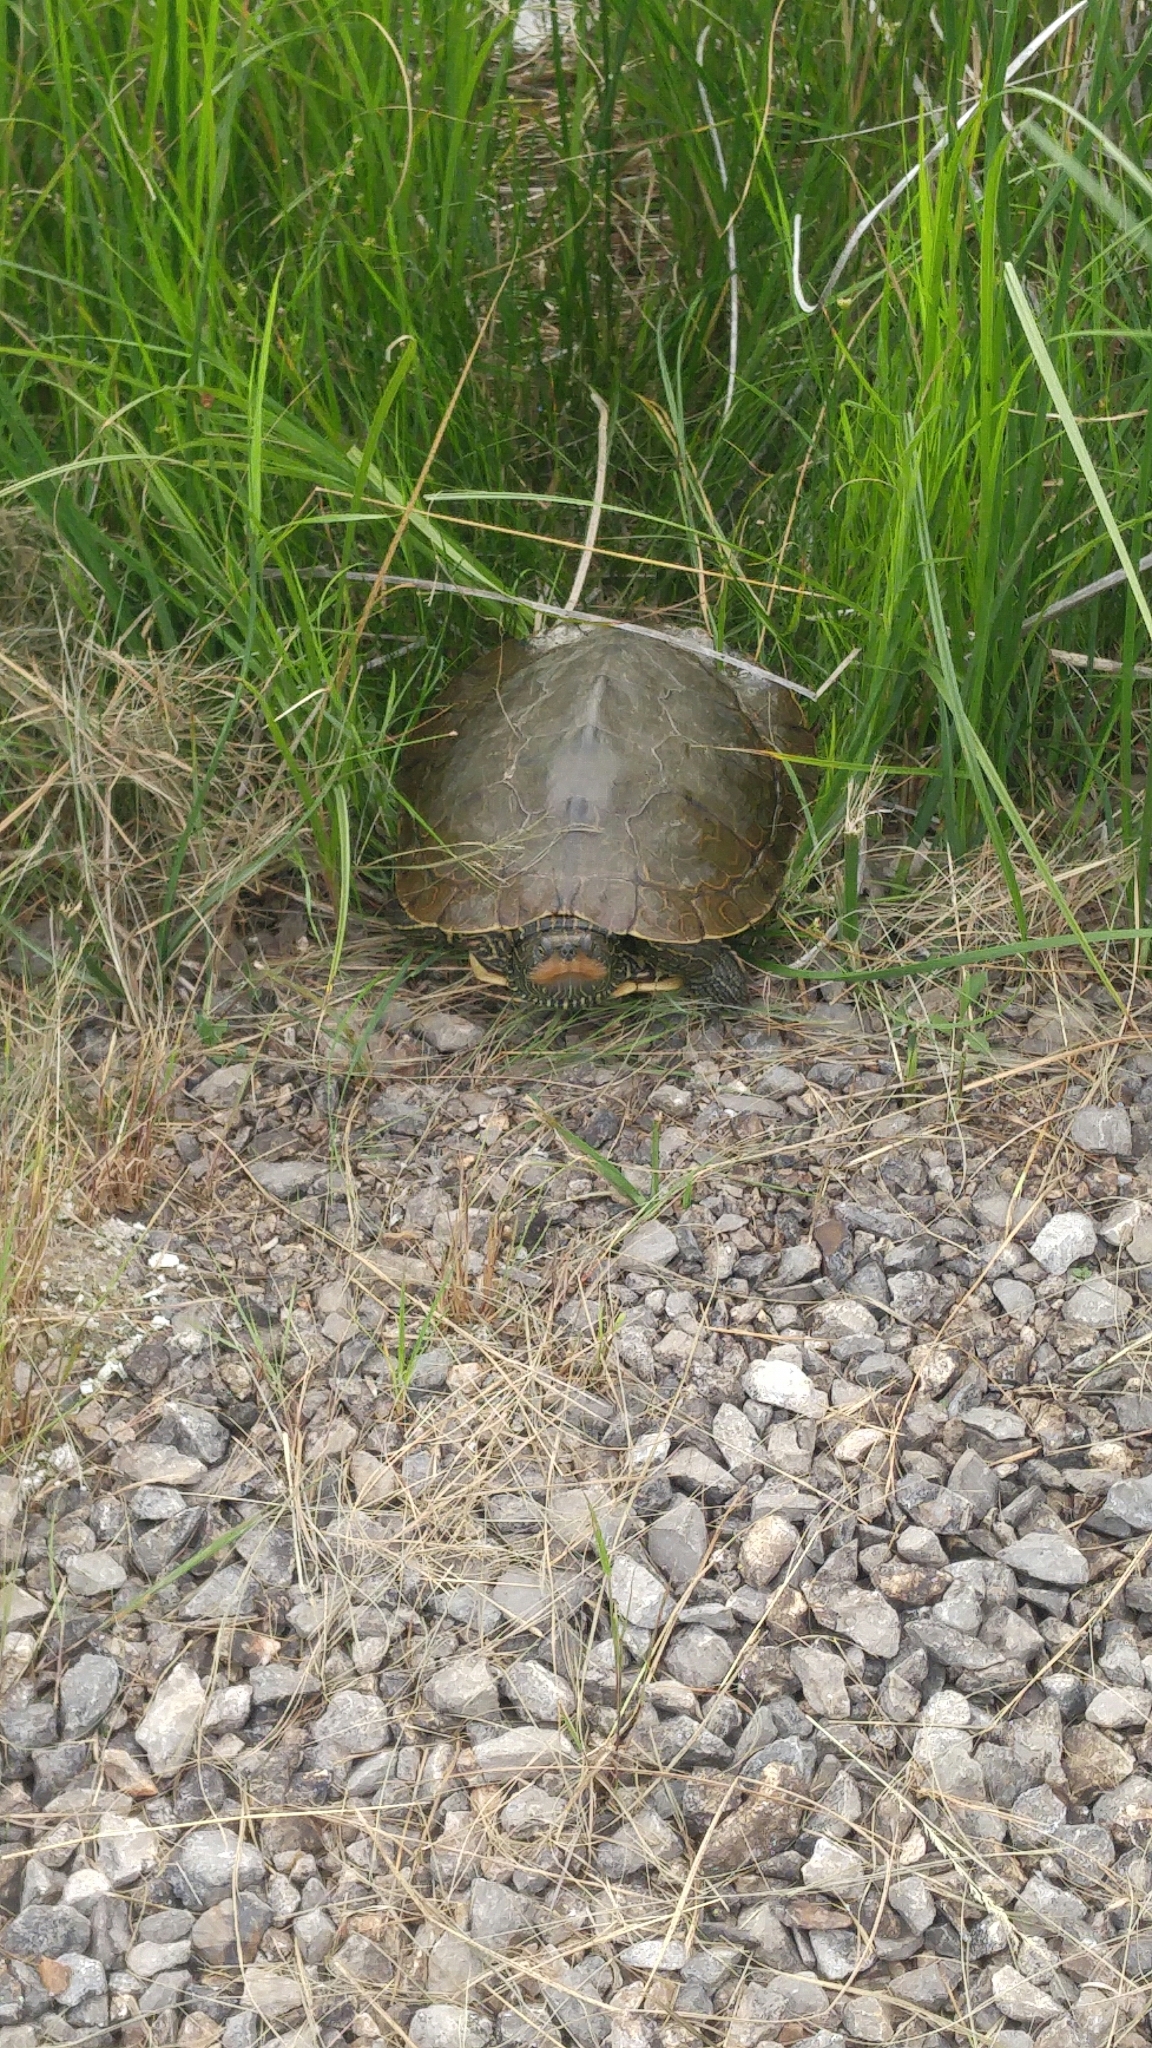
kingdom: Animalia
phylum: Chordata
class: Testudines
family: Emydidae
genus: Graptemys
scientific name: Graptemys geographica
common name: Common map turtle
